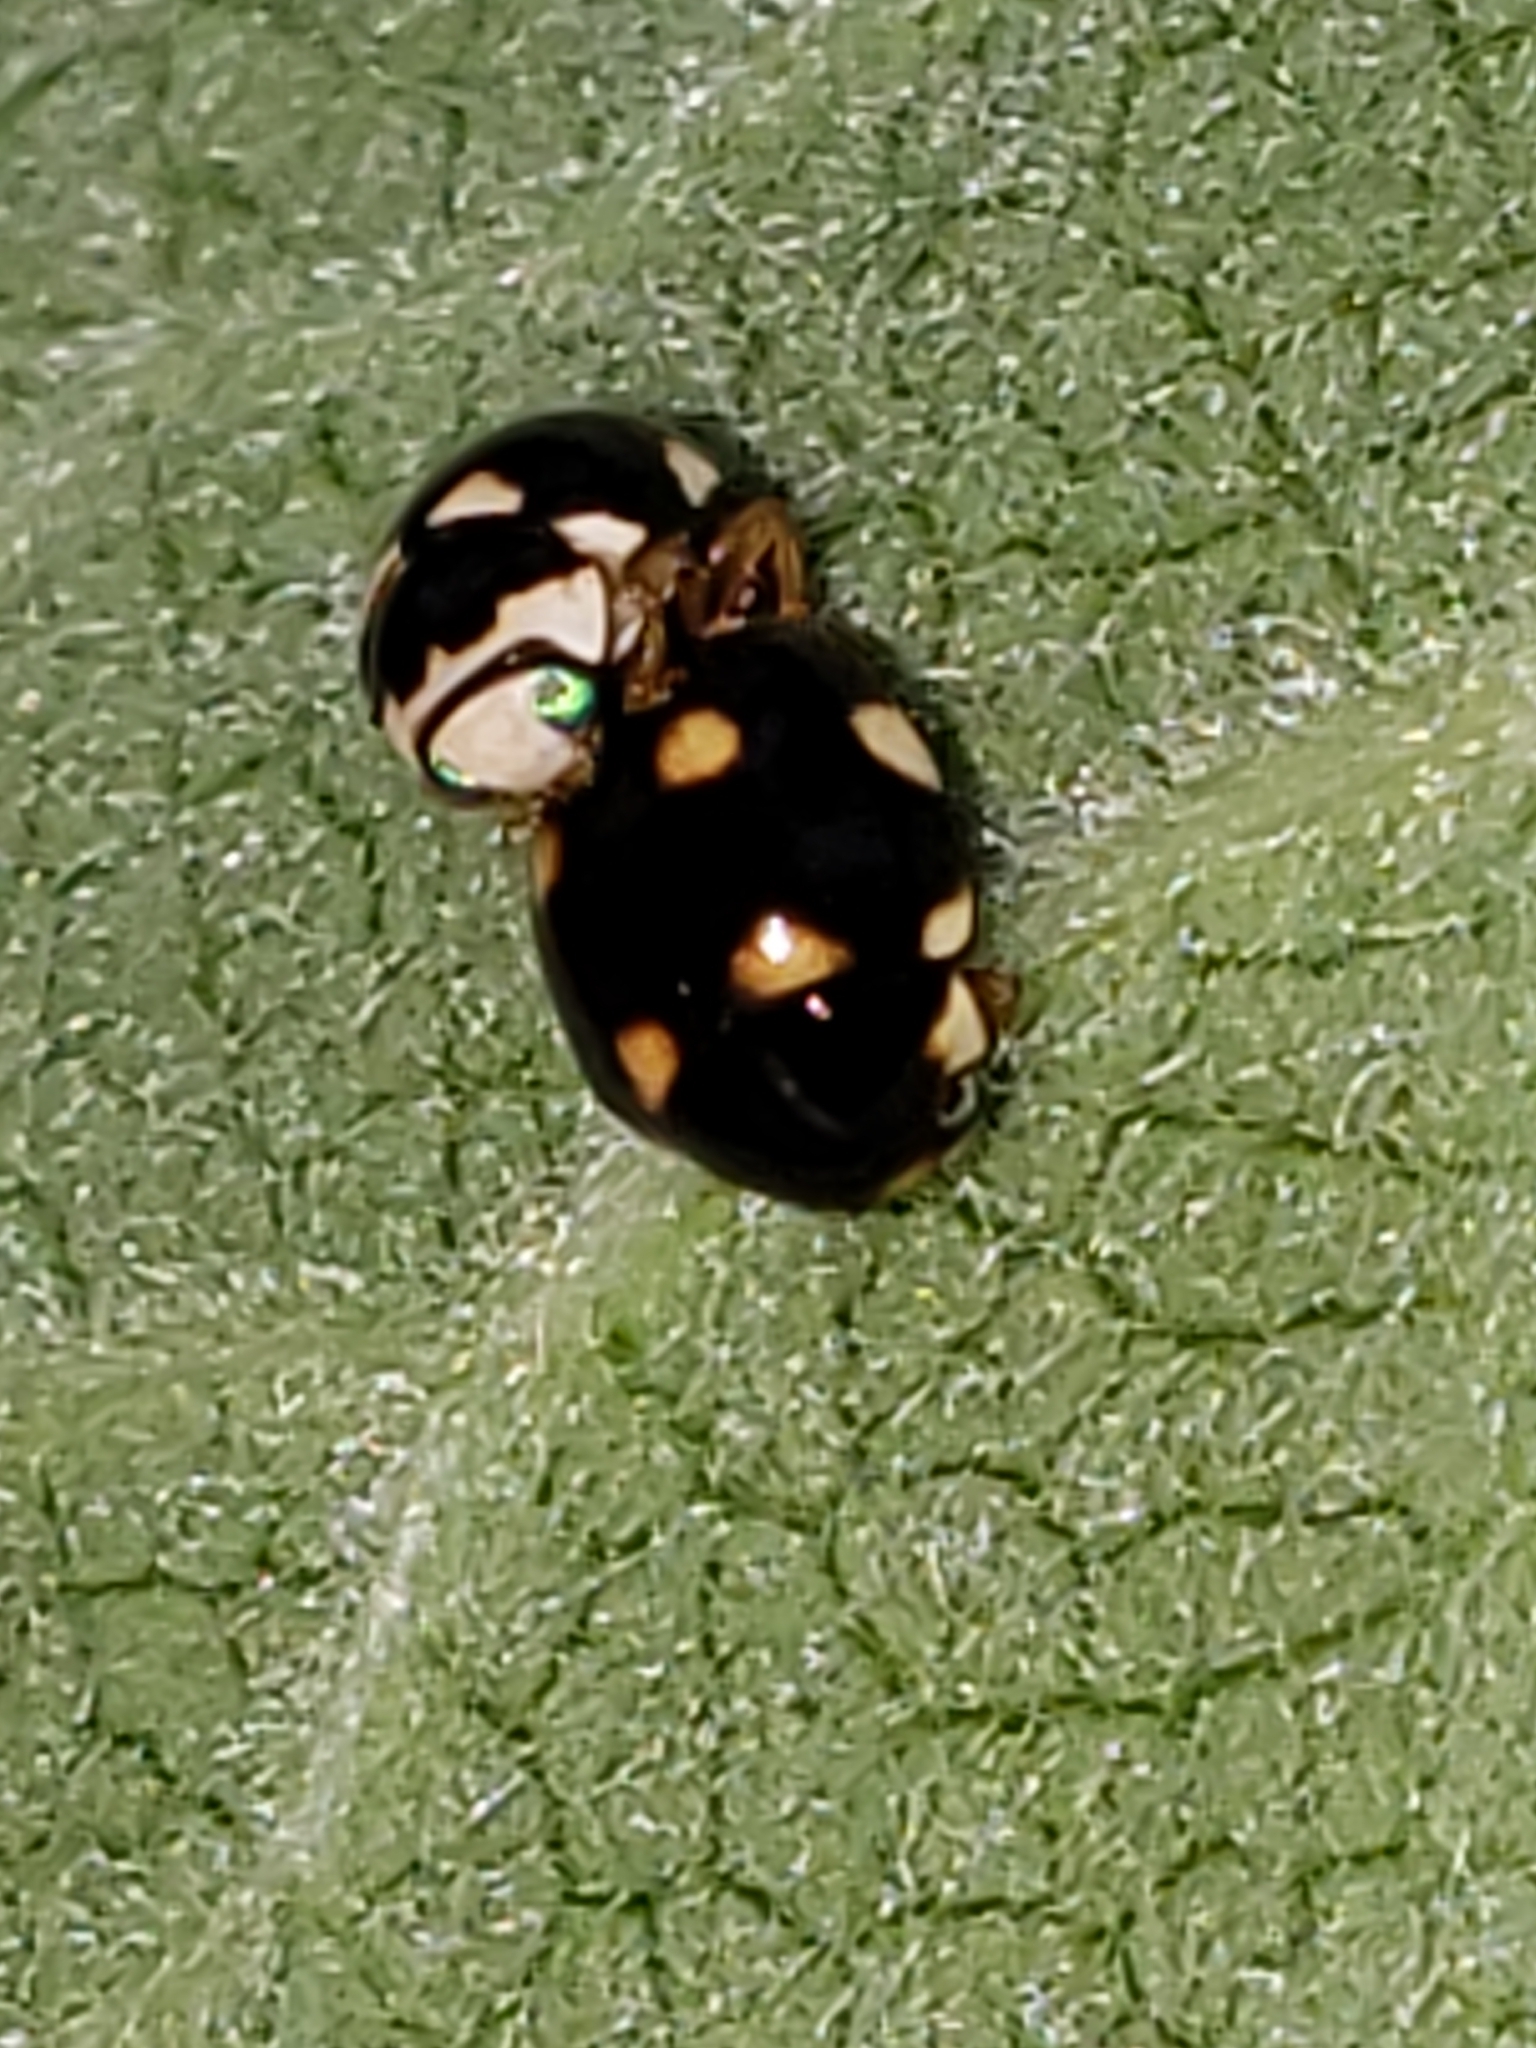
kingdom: Animalia
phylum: Arthropoda
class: Insecta
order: Coleoptera
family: Coccinellidae
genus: Brachiacantha
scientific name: Brachiacantha decempustulata
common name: Ten-spotted spurleg lady beetle
